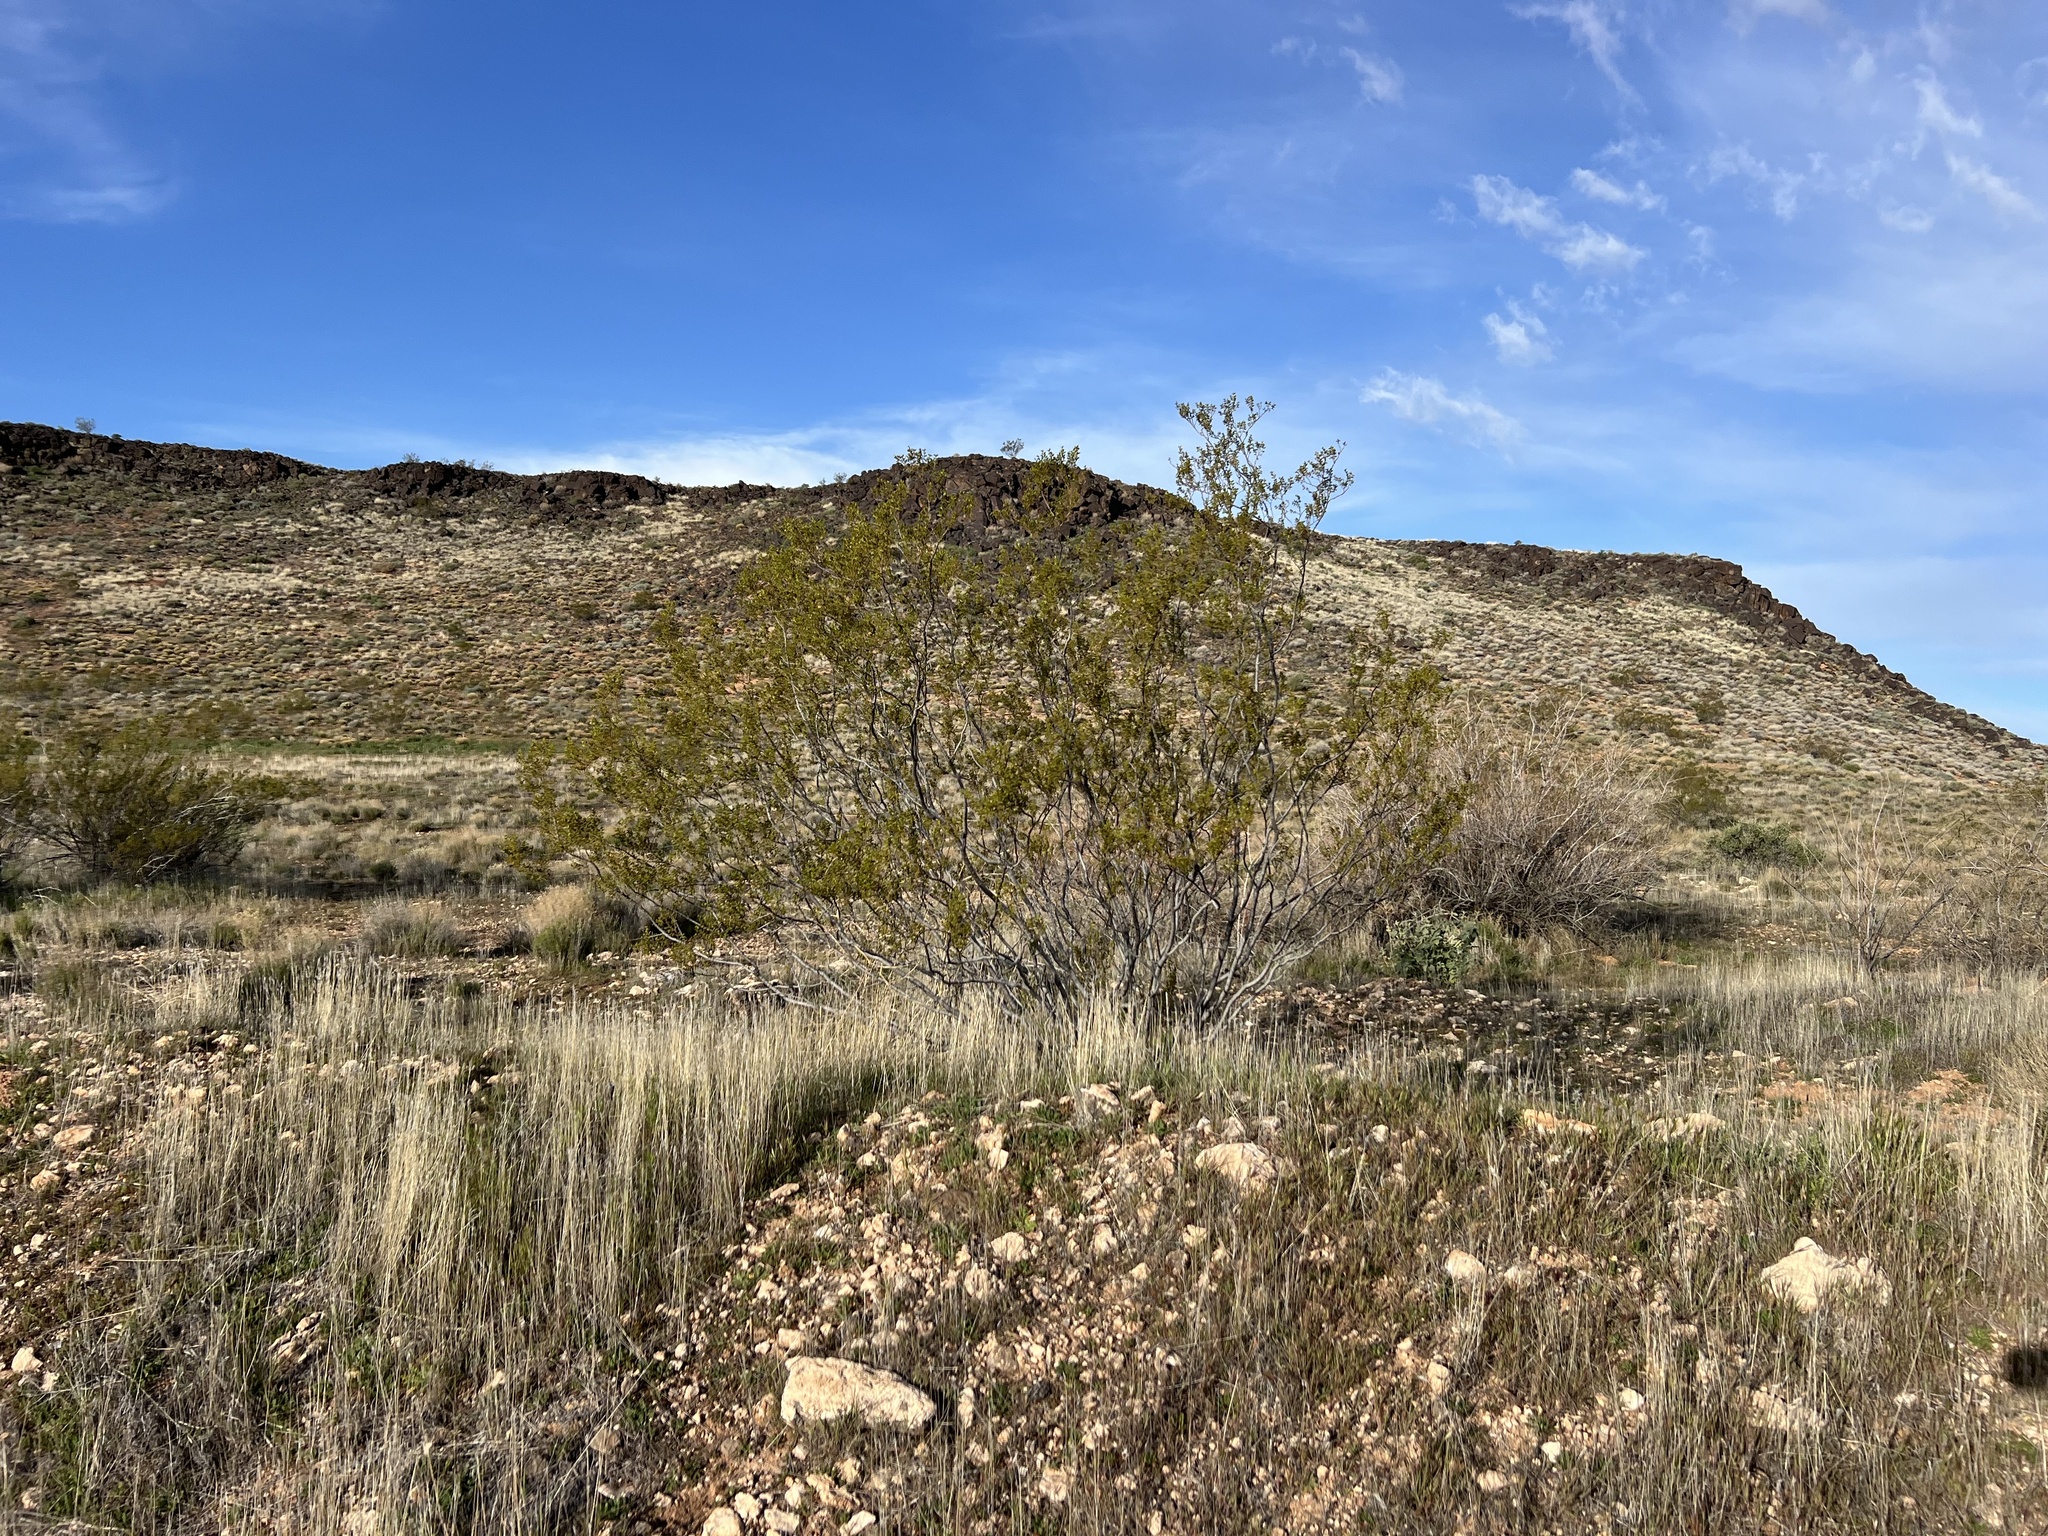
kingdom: Plantae
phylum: Tracheophyta
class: Magnoliopsida
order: Zygophyllales
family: Zygophyllaceae
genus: Larrea
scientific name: Larrea tridentata
